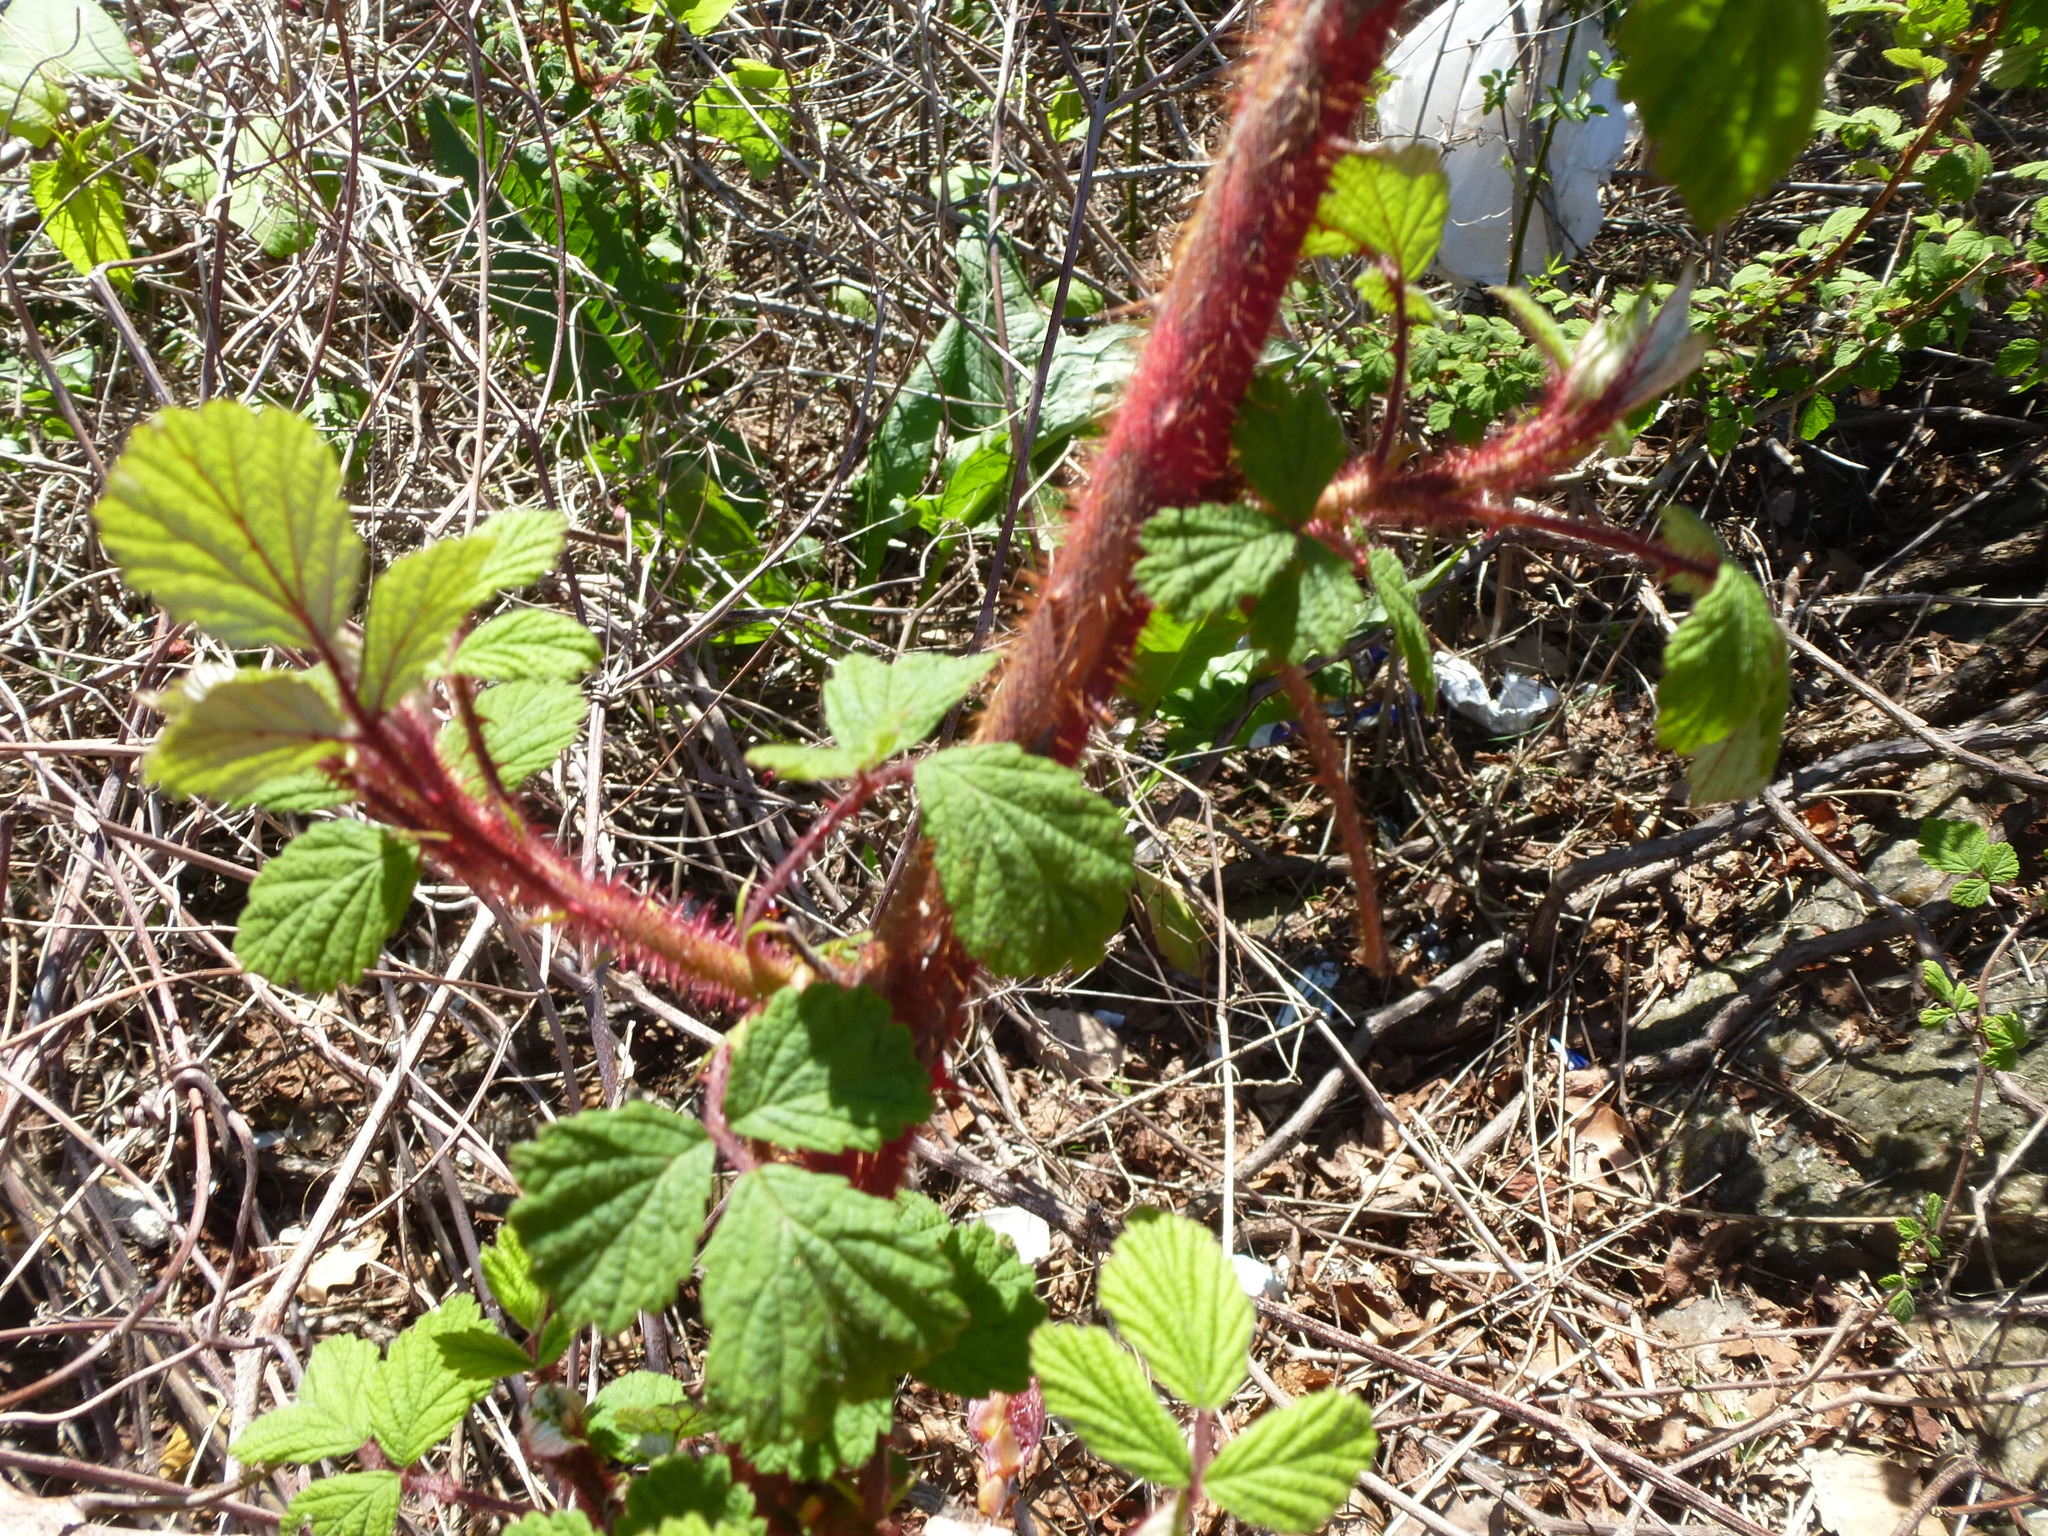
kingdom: Plantae
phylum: Tracheophyta
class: Magnoliopsida
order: Rosales
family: Rosaceae
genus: Rubus
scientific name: Rubus phoenicolasius
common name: Japanese wineberry
